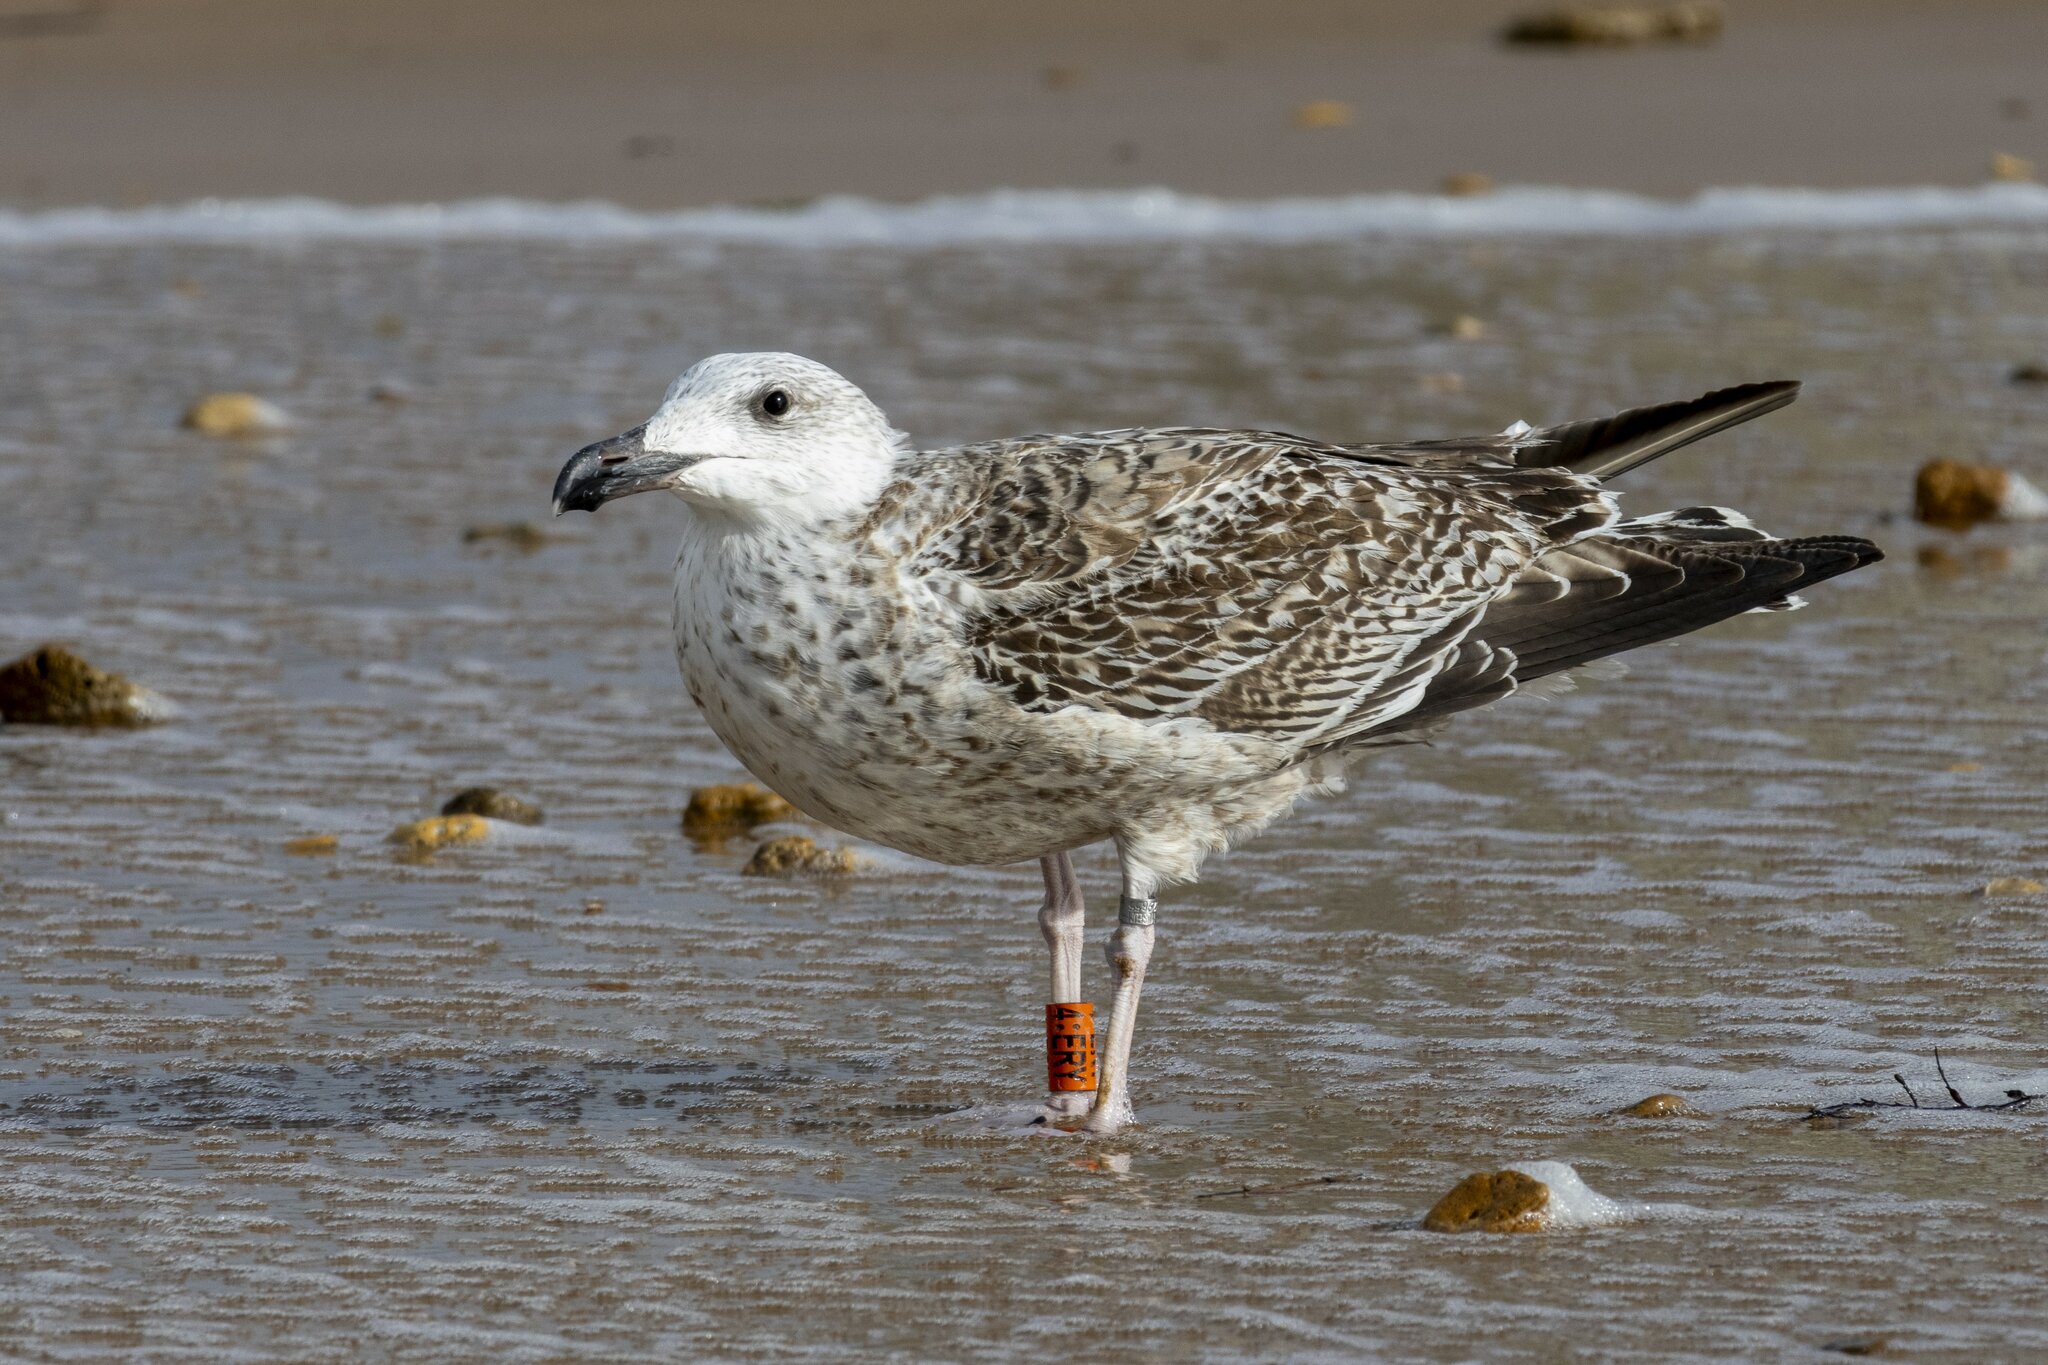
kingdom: Animalia
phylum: Chordata
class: Aves
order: Charadriiformes
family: Laridae
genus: Larus
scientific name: Larus marinus
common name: Great black-backed gull
